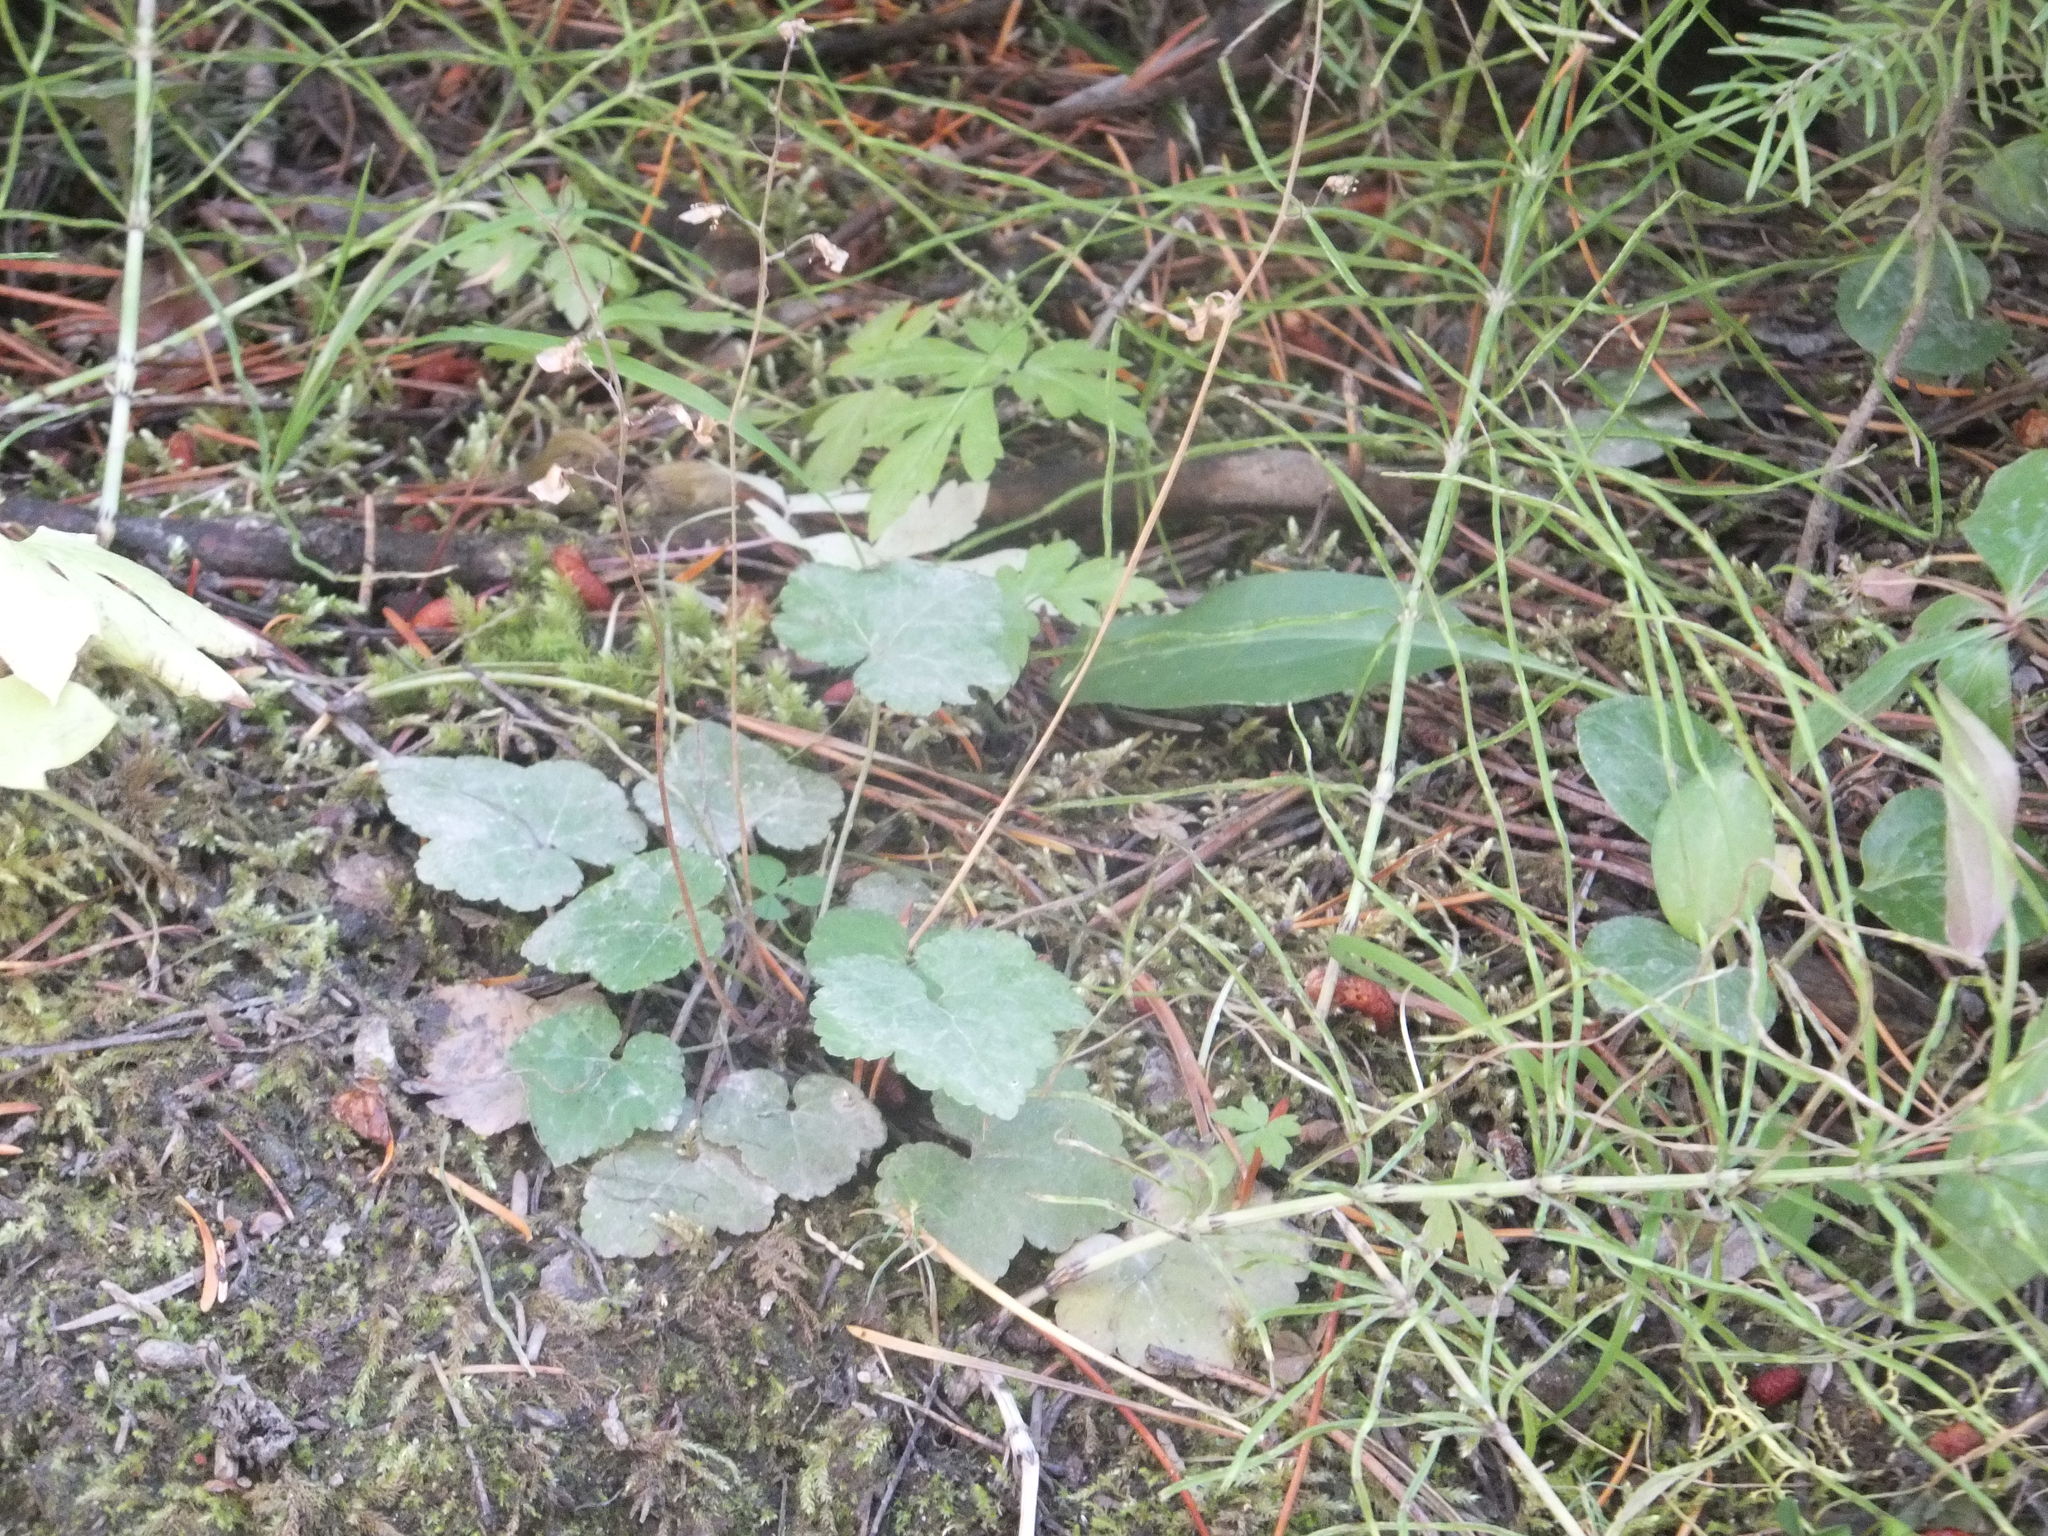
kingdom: Plantae
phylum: Tracheophyta
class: Magnoliopsida
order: Saxifragales
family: Saxifragaceae
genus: Tiarella
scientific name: Tiarella trifoliata
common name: Sugar-scoop
